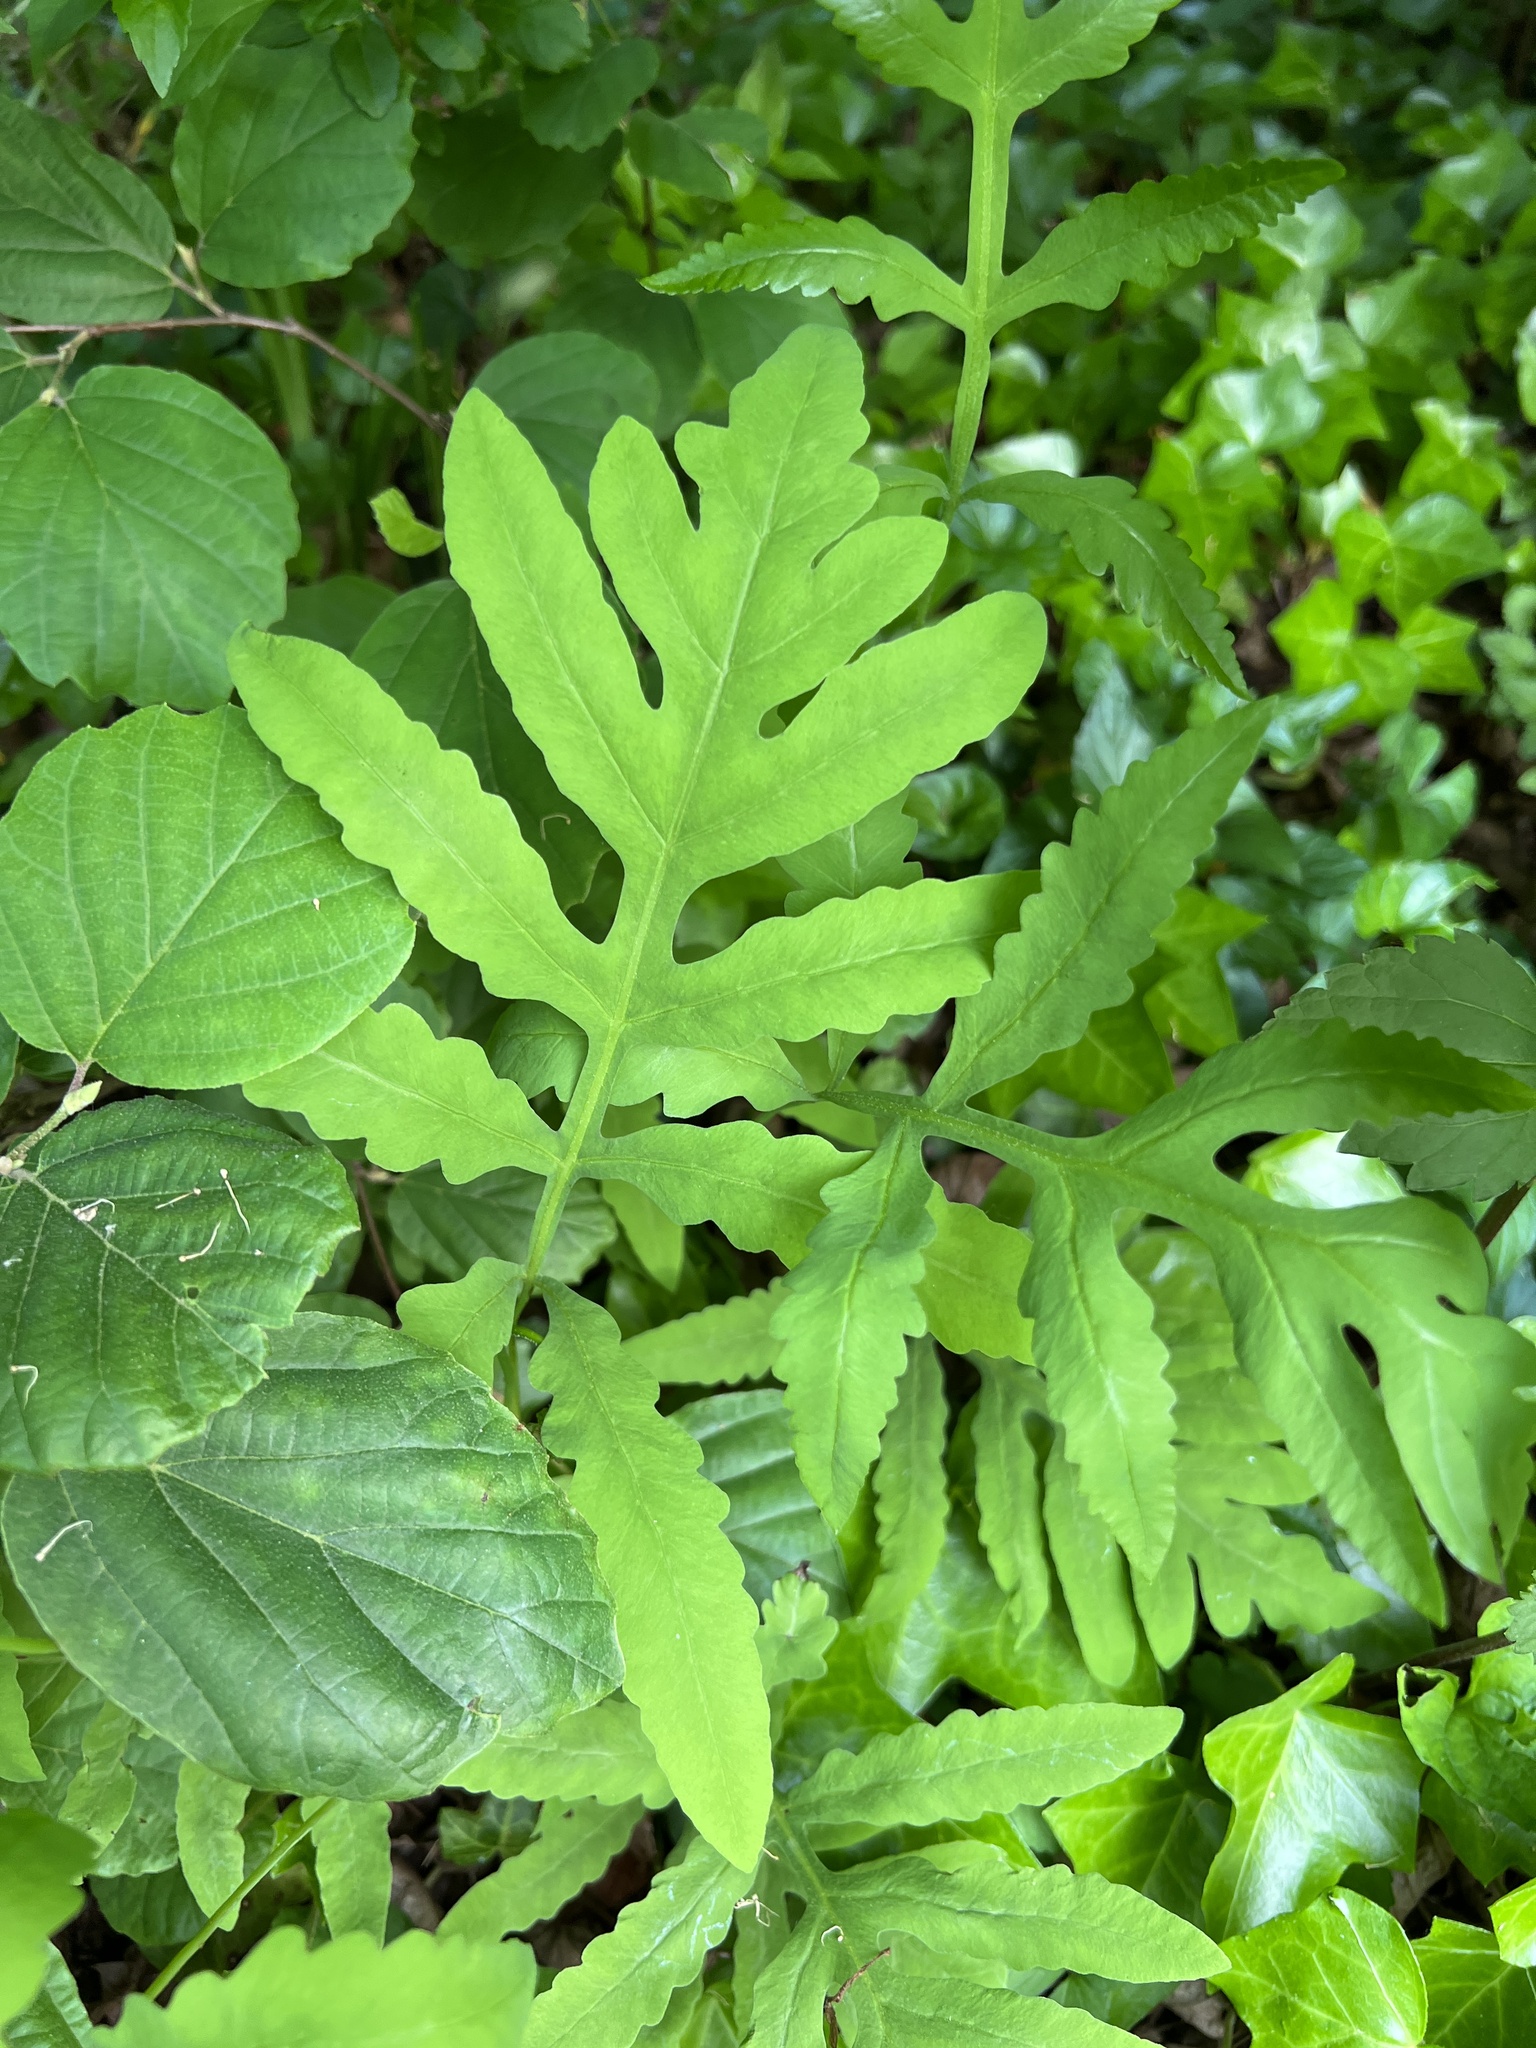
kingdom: Plantae
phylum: Tracheophyta
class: Polypodiopsida
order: Polypodiales
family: Onocleaceae
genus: Onoclea
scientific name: Onoclea sensibilis
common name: Sensitive fern
